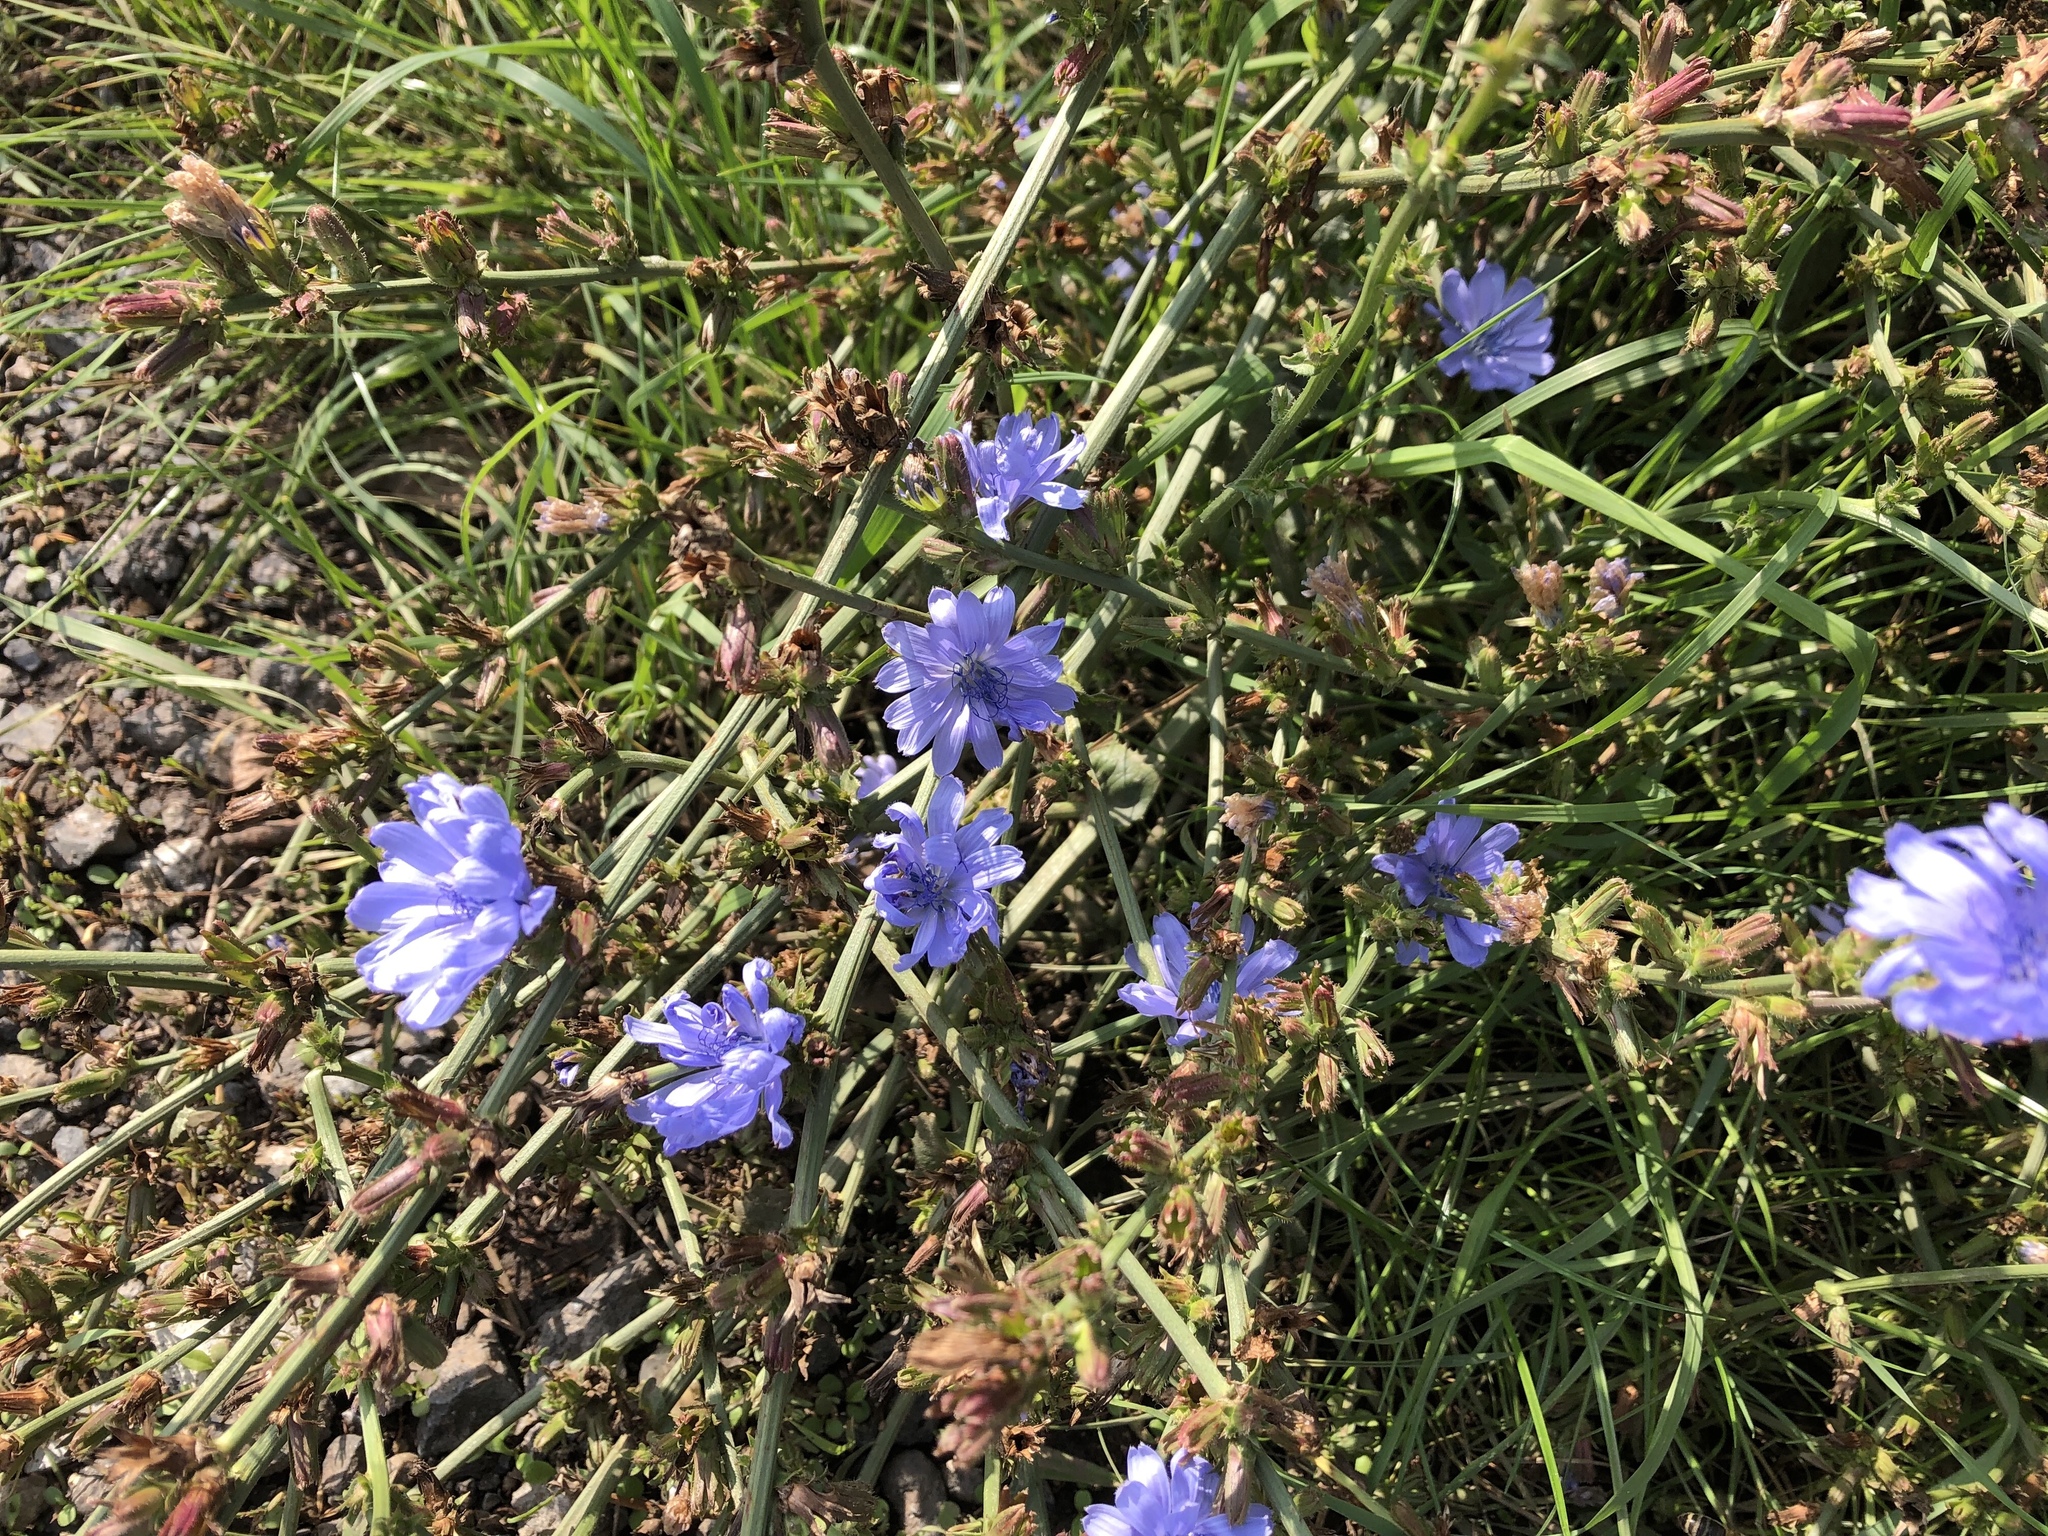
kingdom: Plantae
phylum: Tracheophyta
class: Magnoliopsida
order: Asterales
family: Asteraceae
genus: Cichorium
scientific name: Cichorium intybus
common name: Chicory
